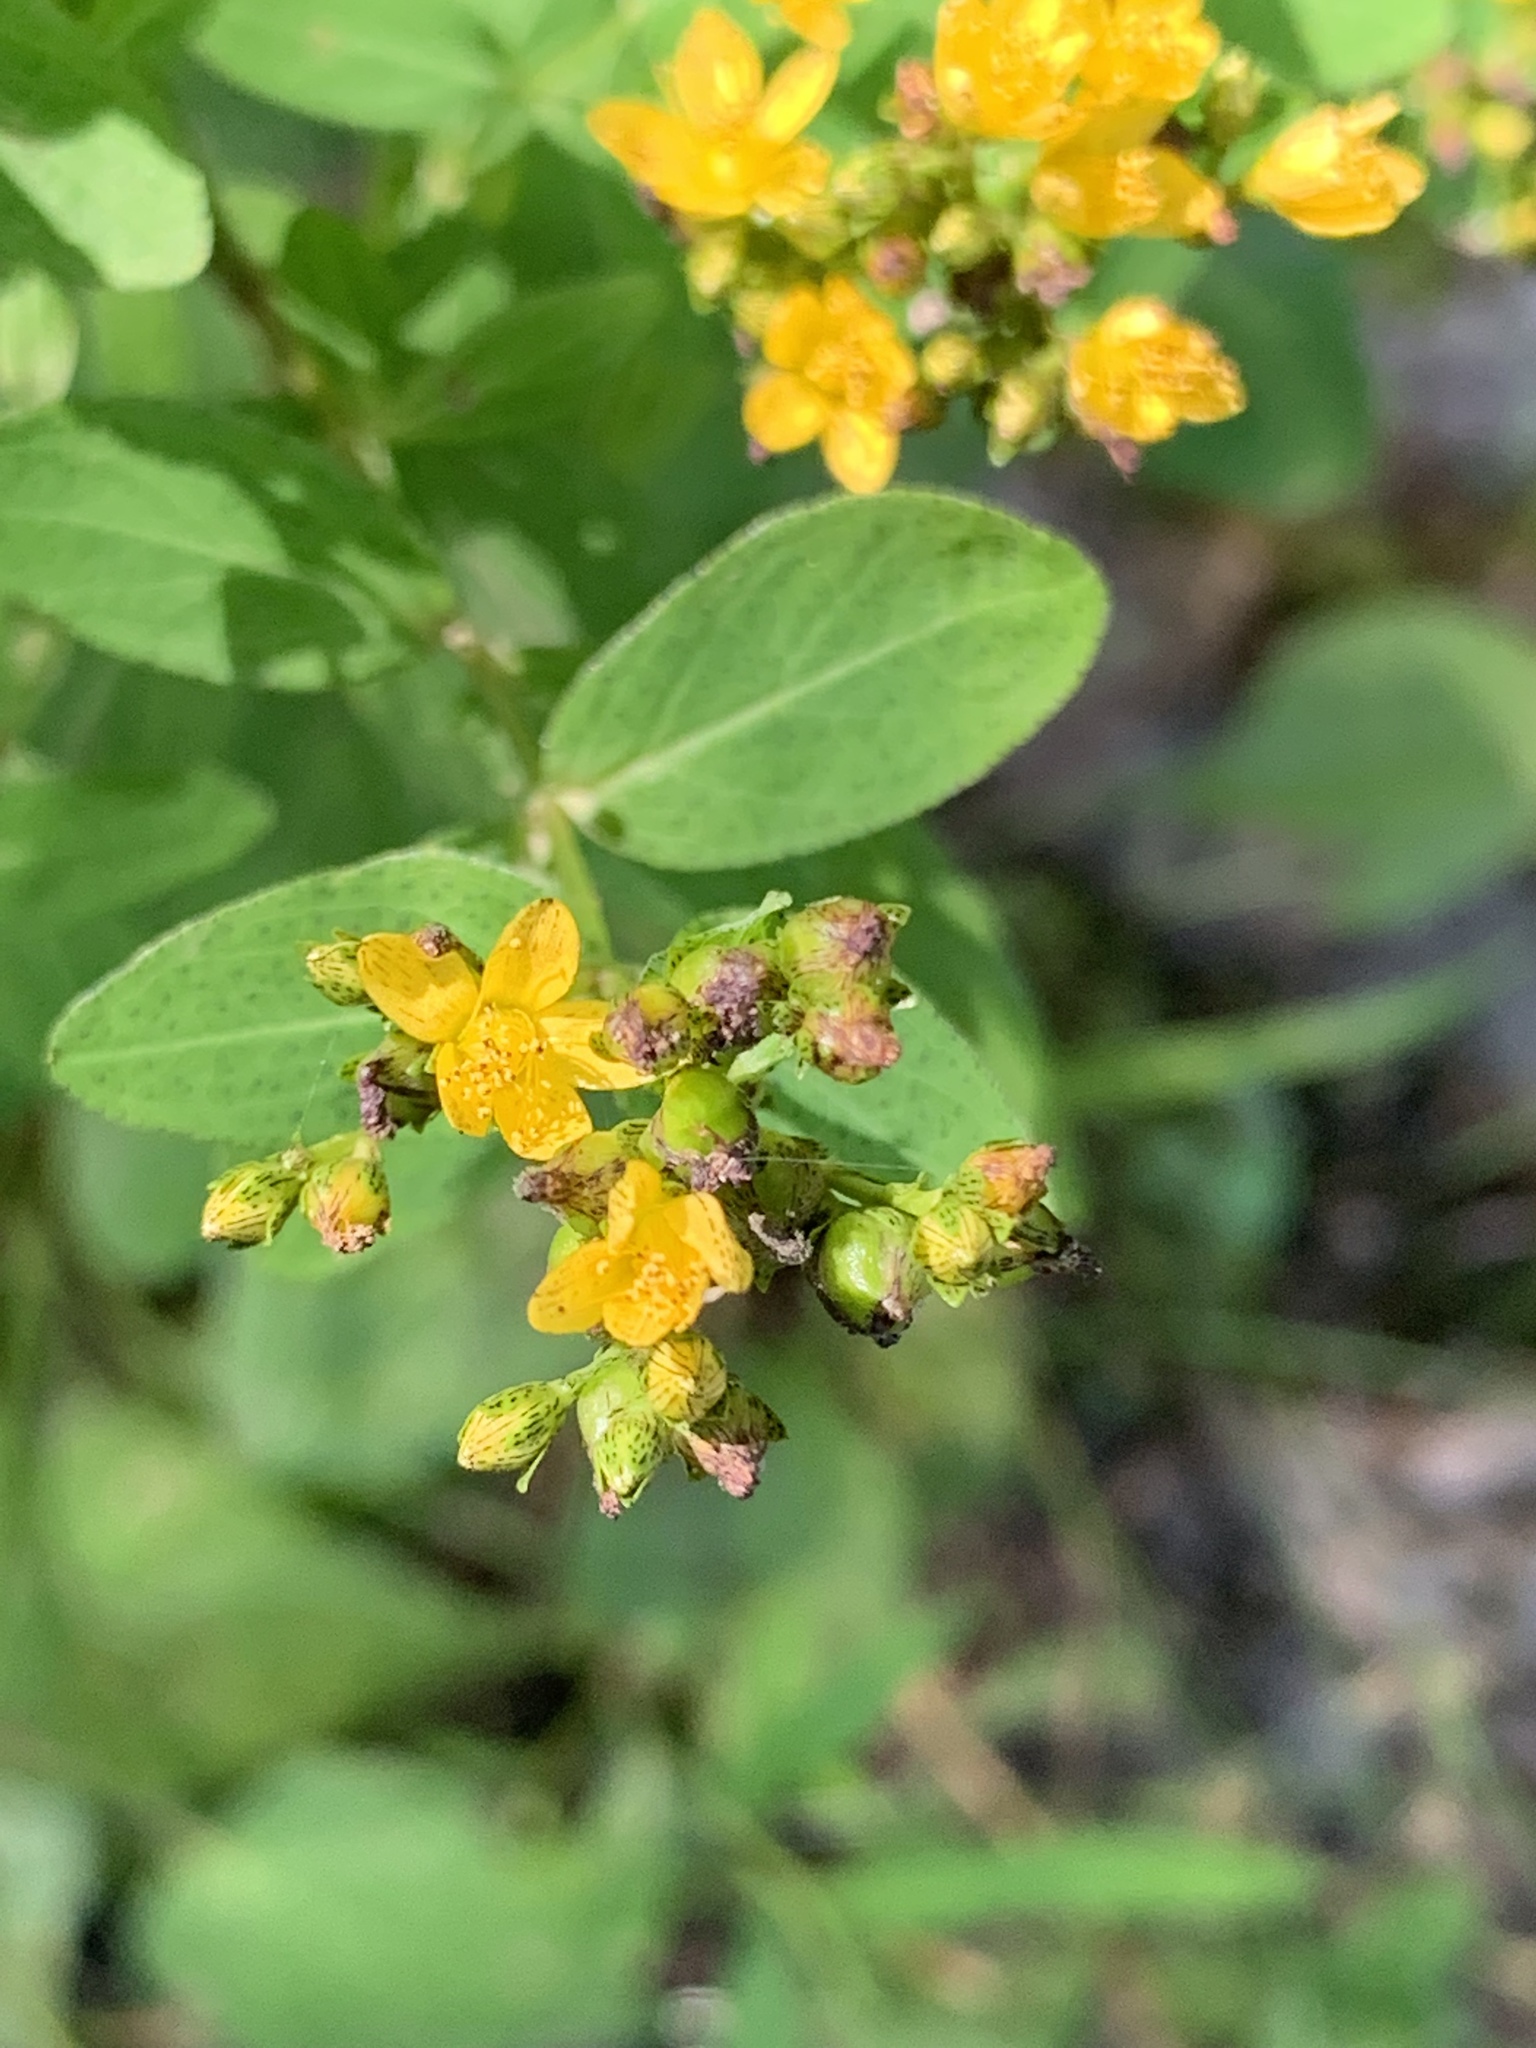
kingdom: Plantae
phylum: Tracheophyta
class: Magnoliopsida
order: Malpighiales
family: Hypericaceae
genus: Hypericum
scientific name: Hypericum punctatum
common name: Spotted st. john's-wort
